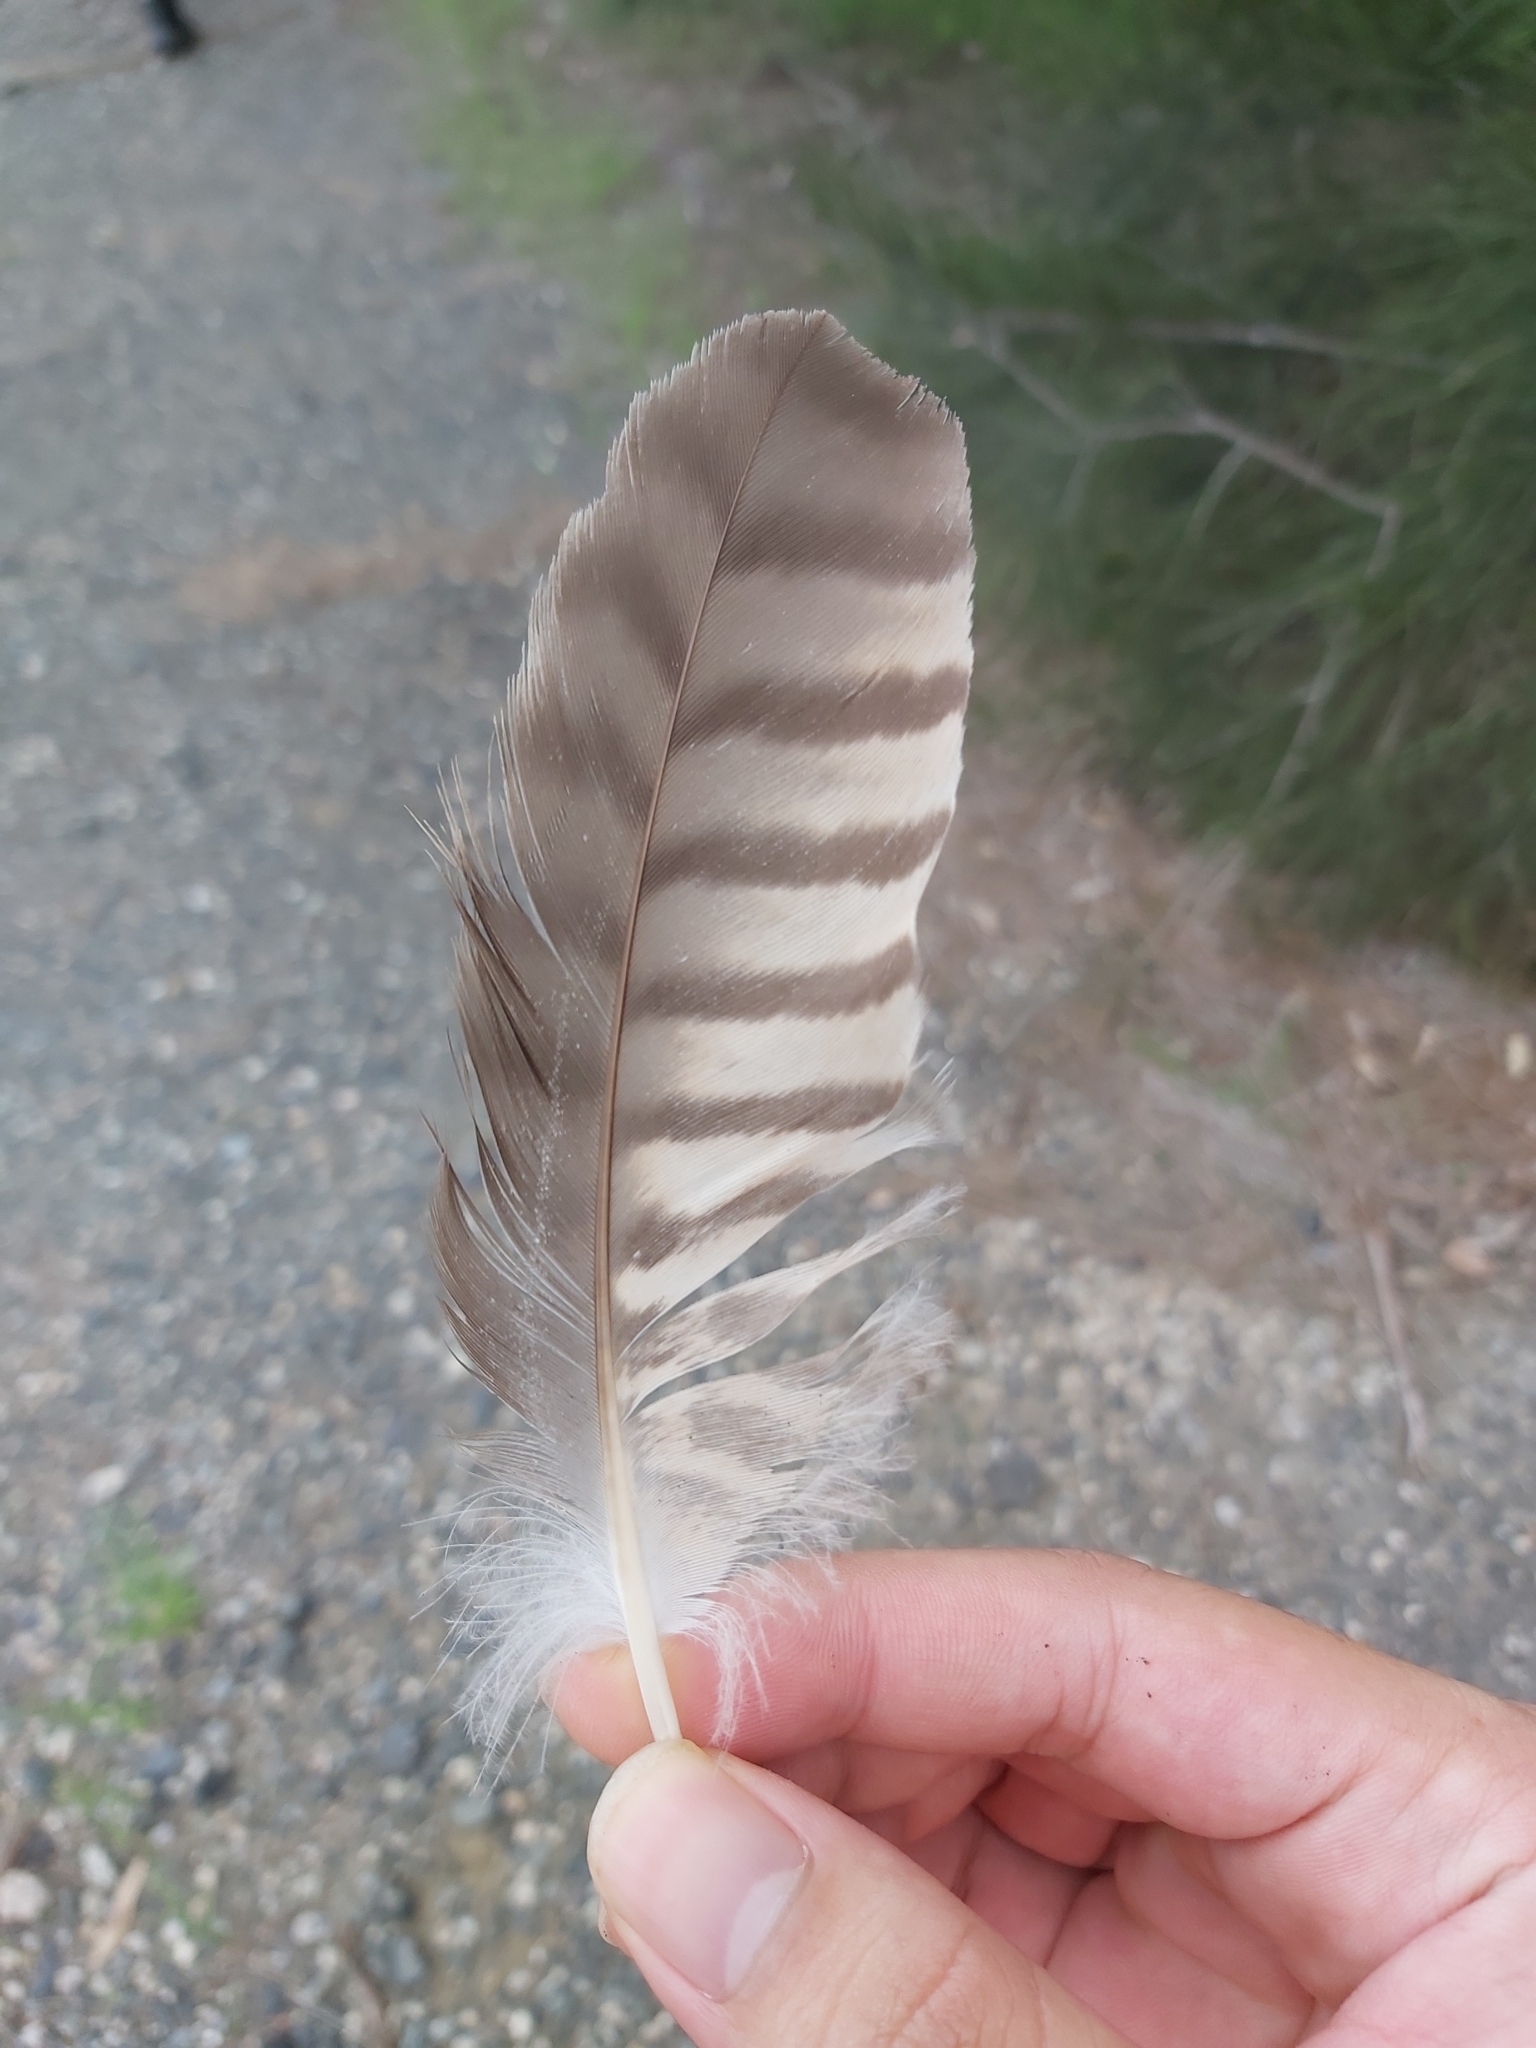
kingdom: Animalia
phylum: Chordata
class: Aves
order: Accipitriformes
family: Accipitridae
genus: Accipiter
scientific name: Accipiter fasciatus
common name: Brown goshawk
